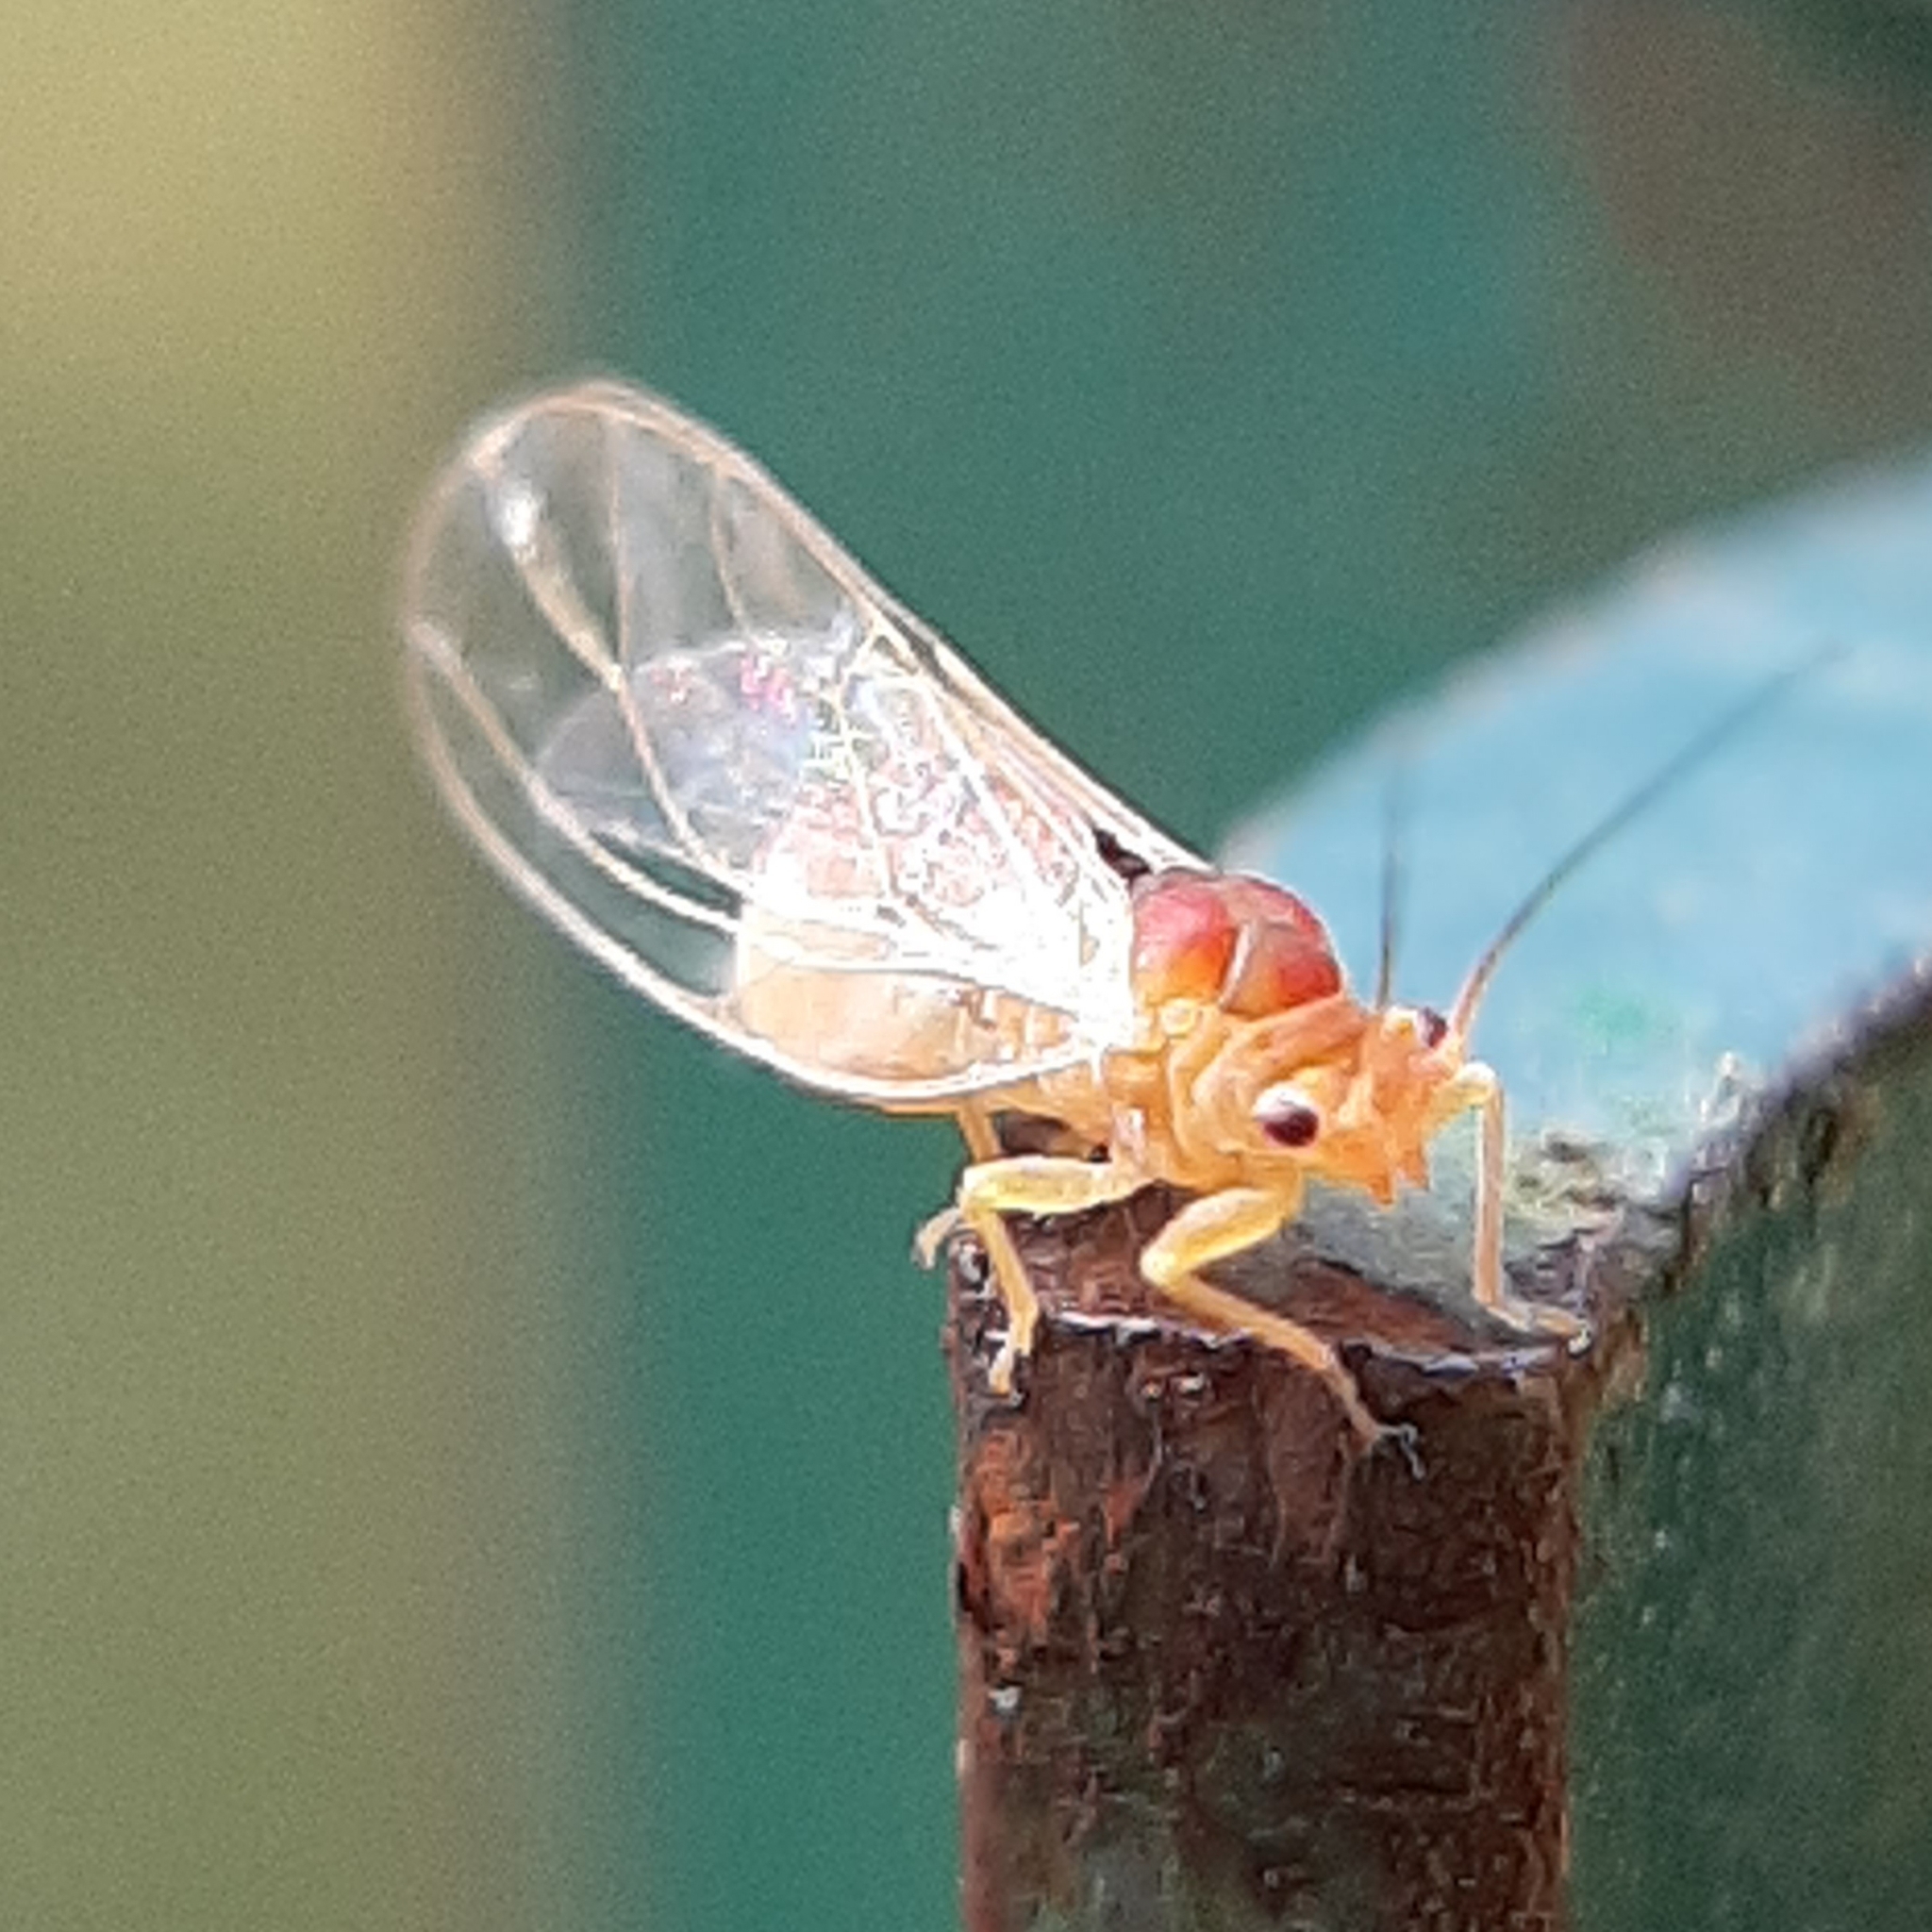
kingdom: Animalia
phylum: Arthropoda
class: Insecta
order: Hemiptera
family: Psyllidae
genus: Psylla
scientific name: Psylla sanguinea
